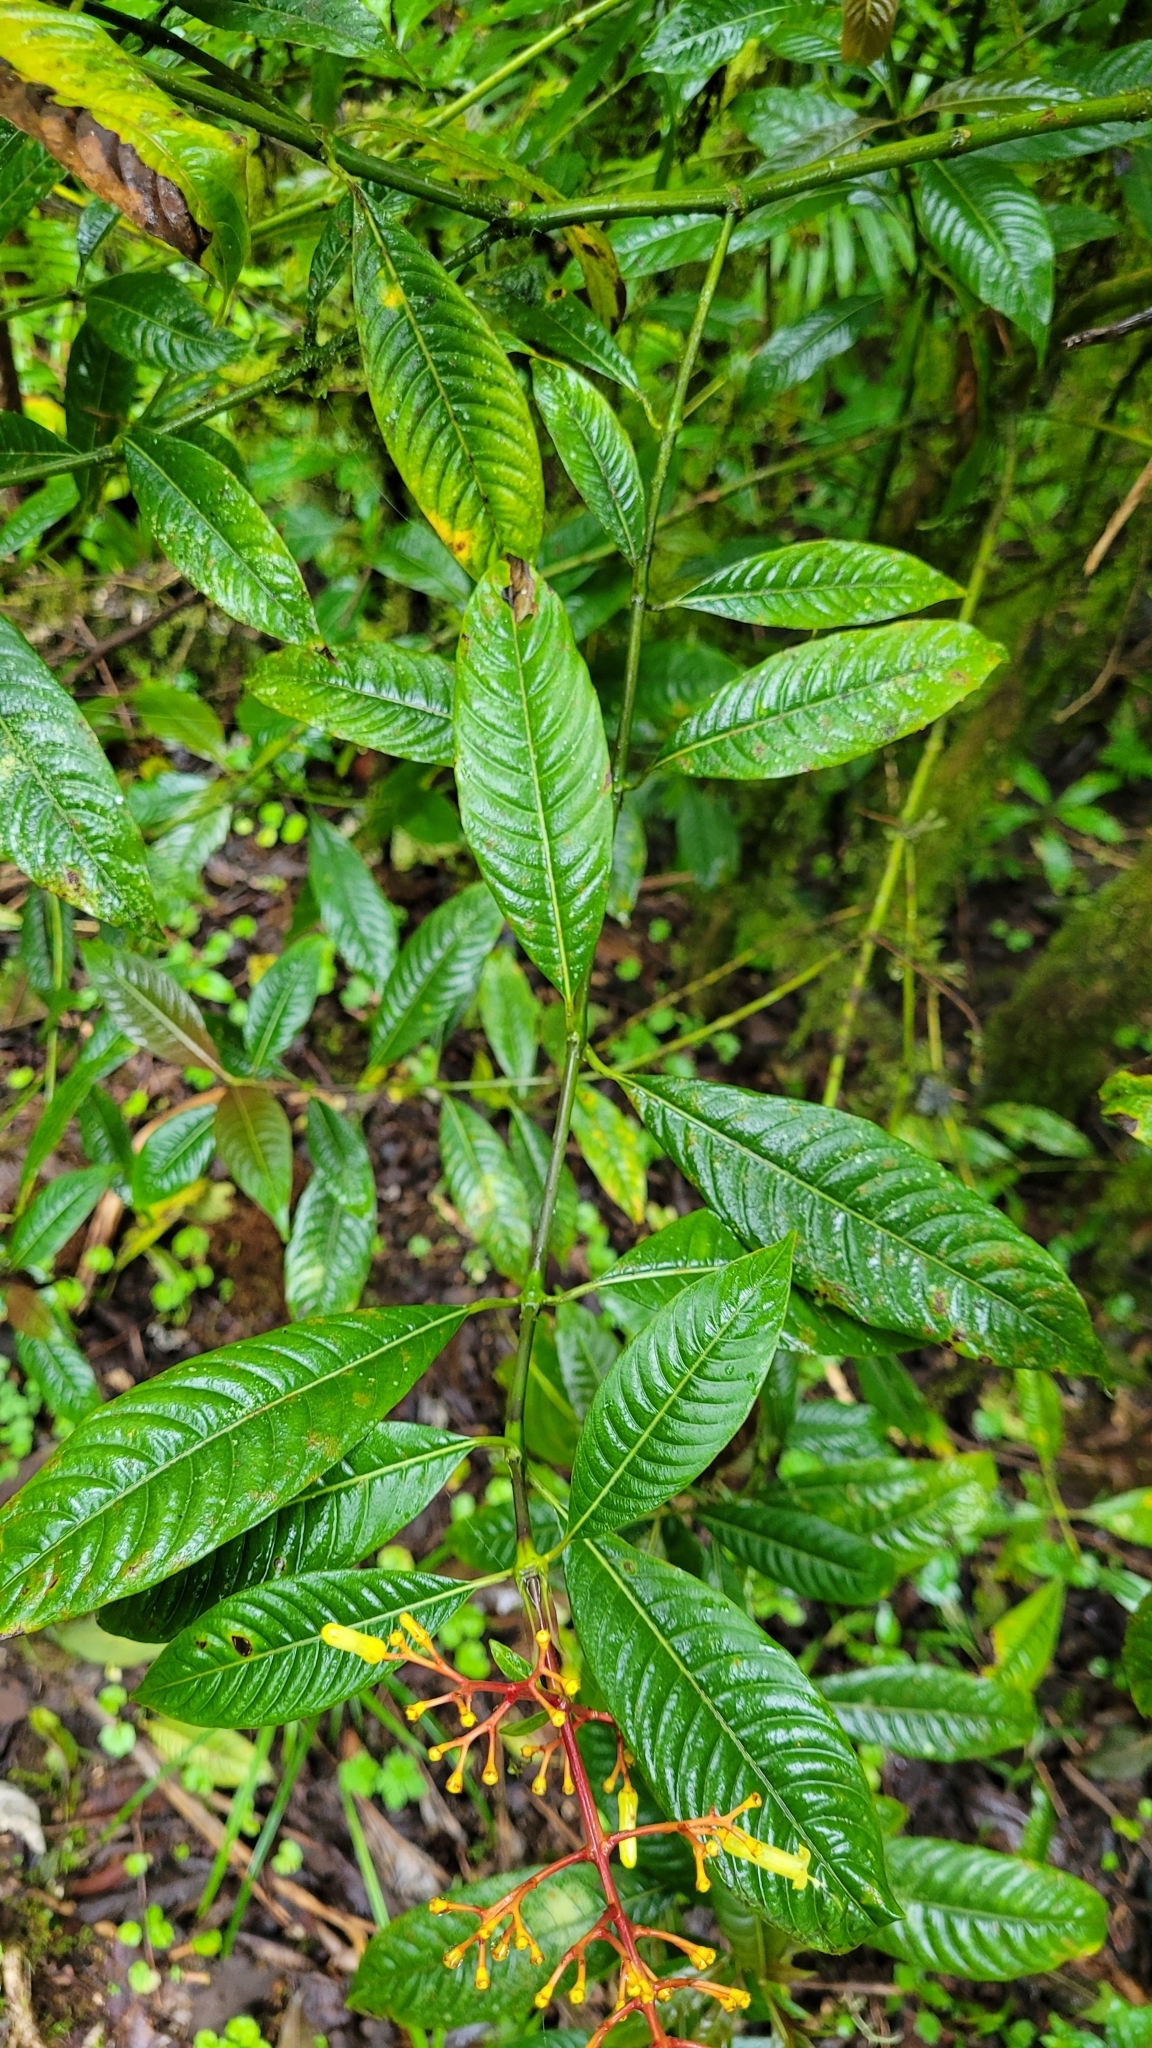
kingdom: Plantae
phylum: Tracheophyta
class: Magnoliopsida
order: Gentianales
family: Rubiaceae
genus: Palicourea
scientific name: Palicourea padifolia
